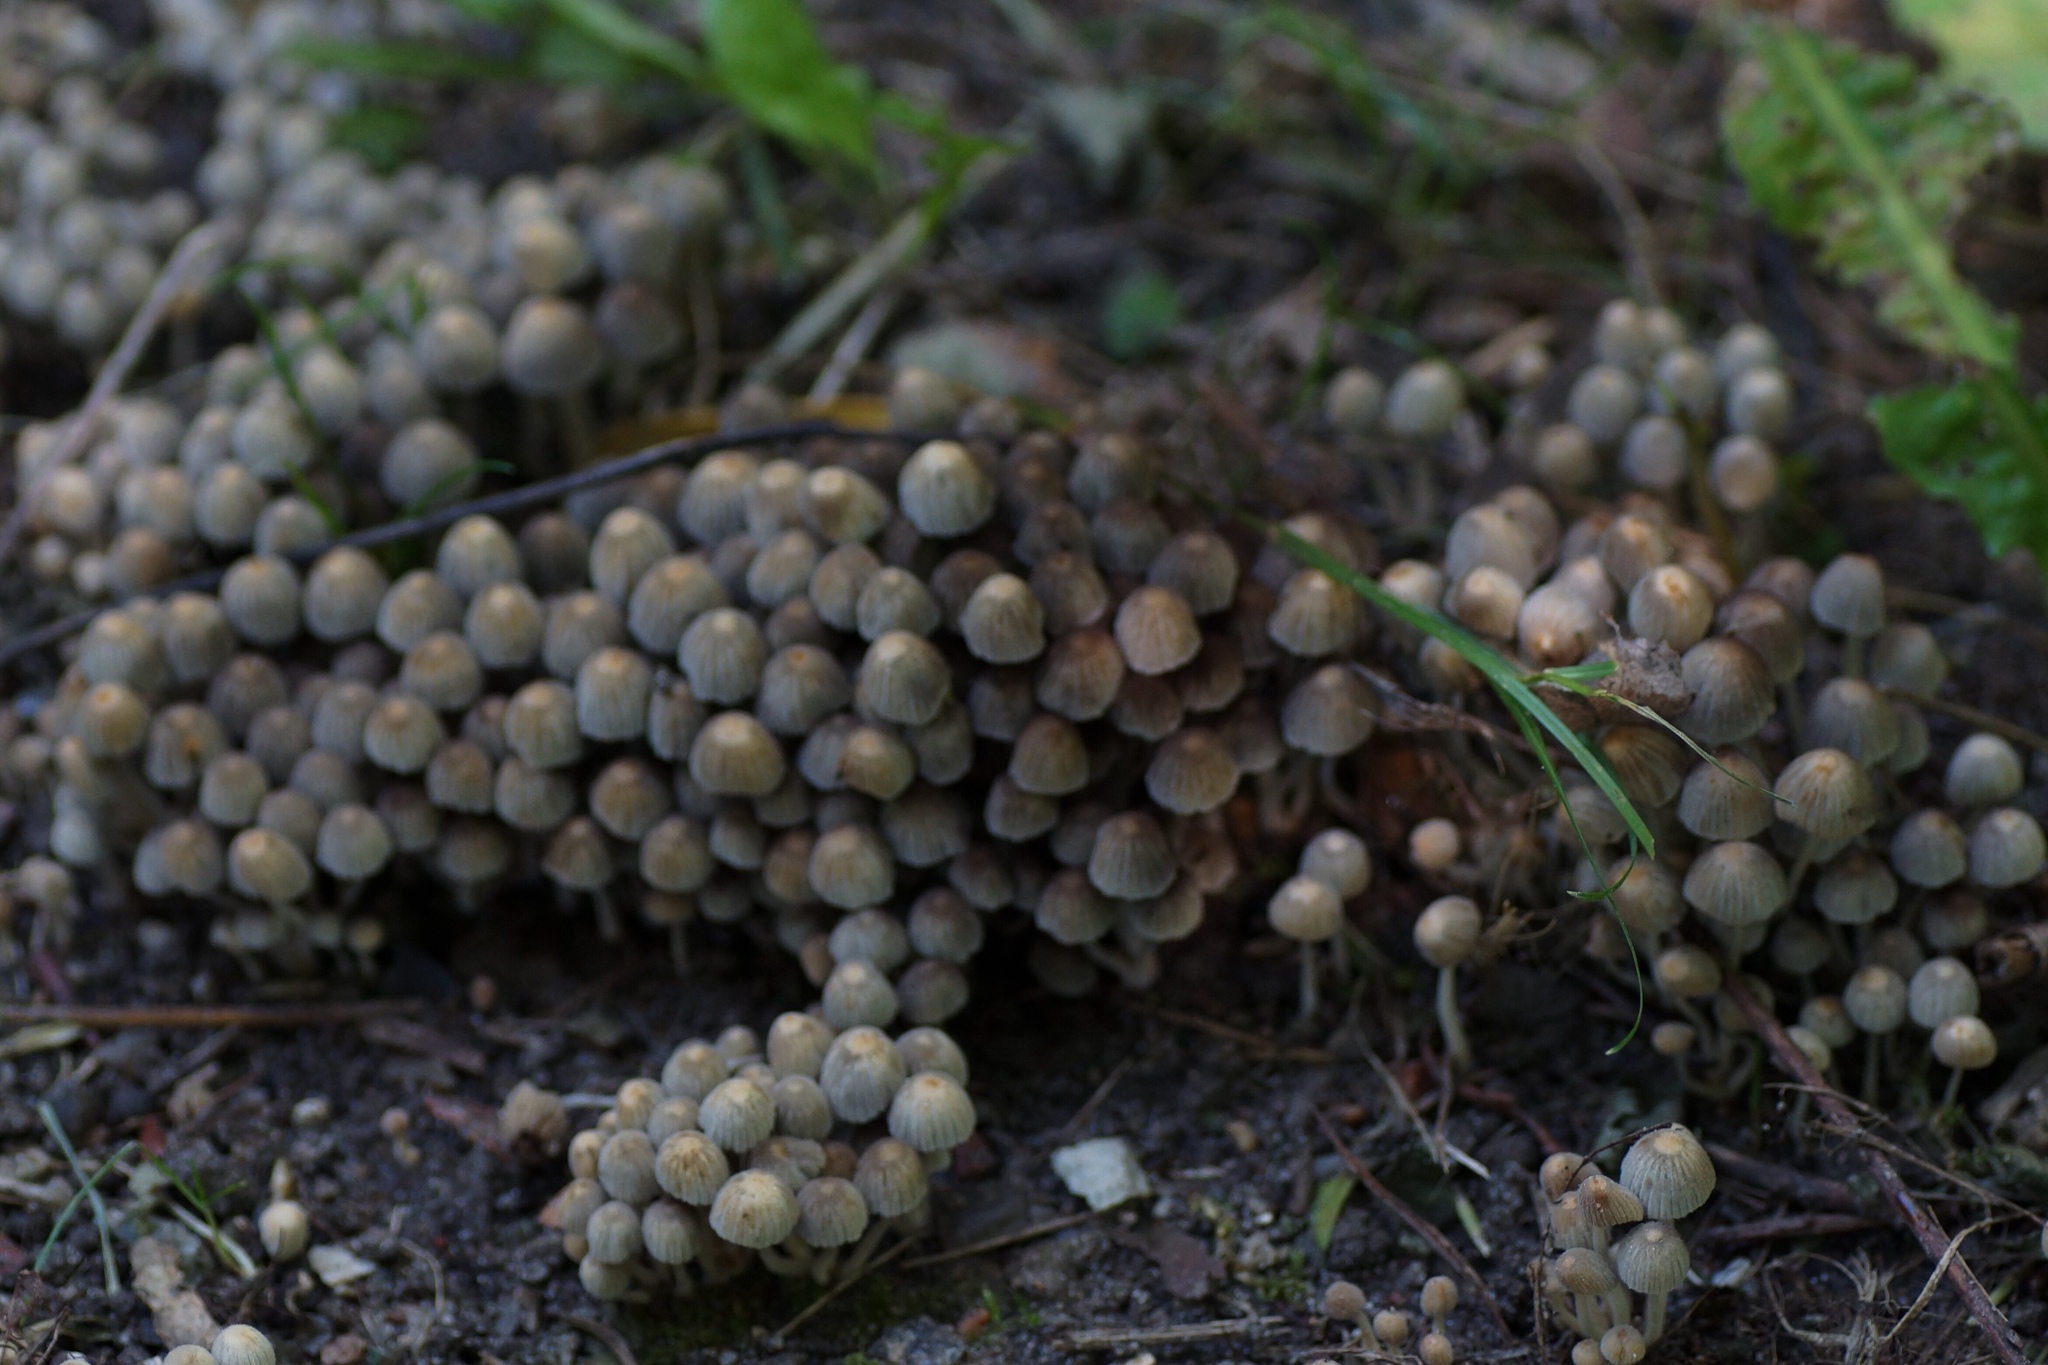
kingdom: Fungi
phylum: Basidiomycota
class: Agaricomycetes
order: Agaricales
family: Psathyrellaceae
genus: Coprinellus
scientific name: Coprinellus disseminatus
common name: Fairies' bonnets
